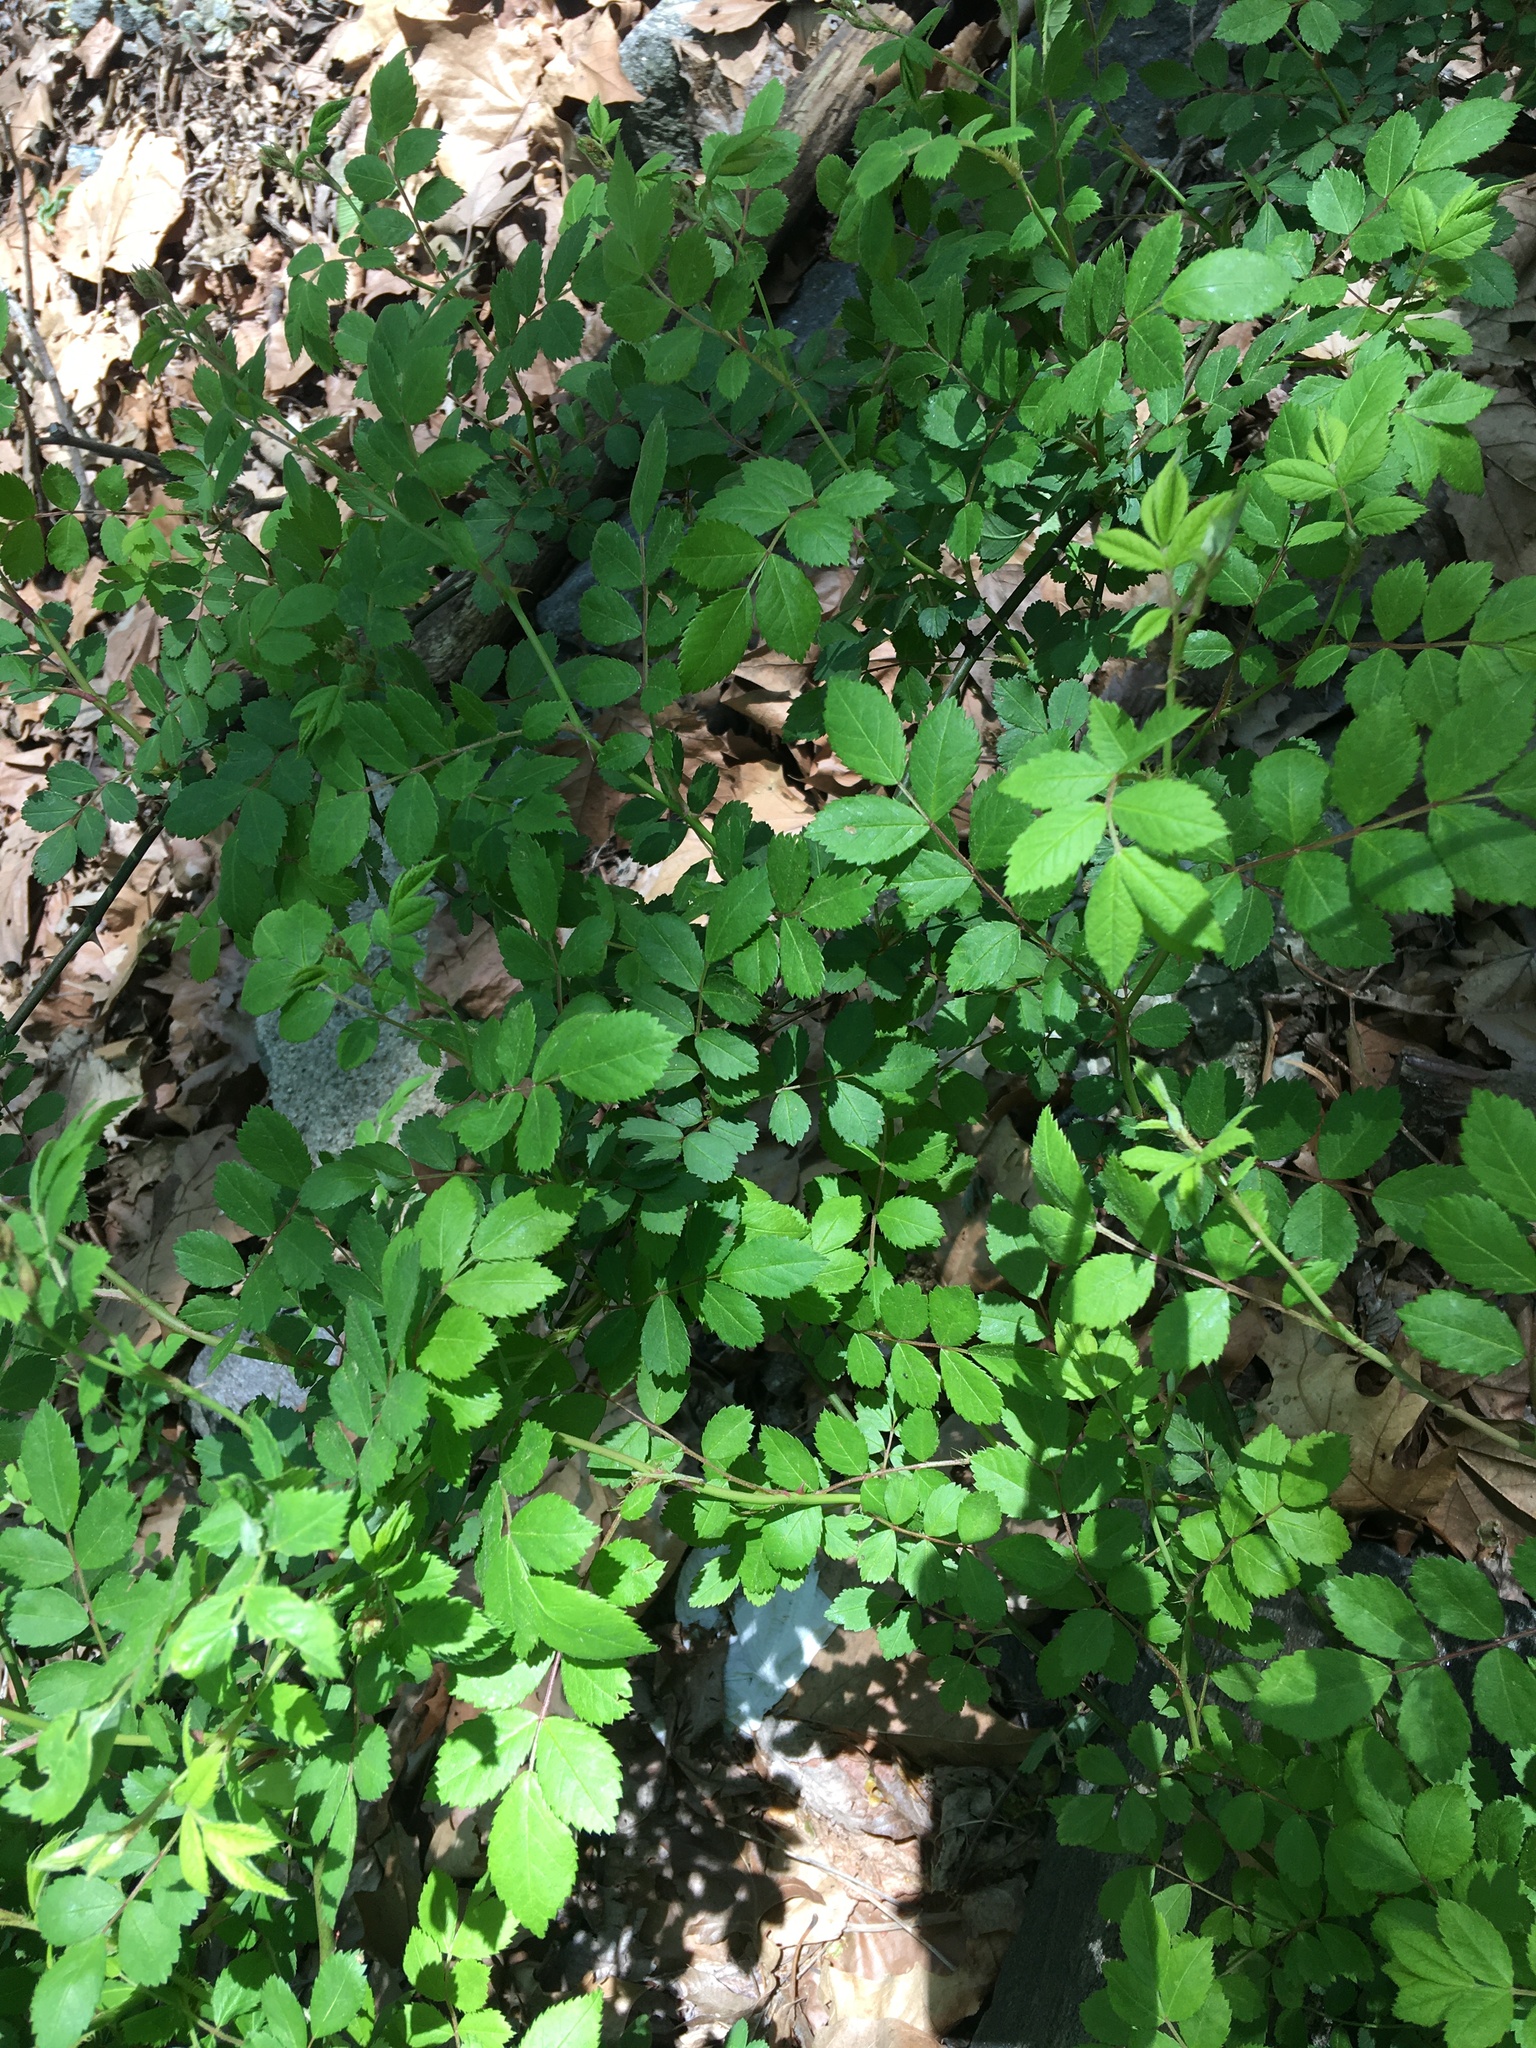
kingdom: Plantae
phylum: Tracheophyta
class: Magnoliopsida
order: Rosales
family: Rosaceae
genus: Rosa
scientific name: Rosa multiflora
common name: Multiflora rose
